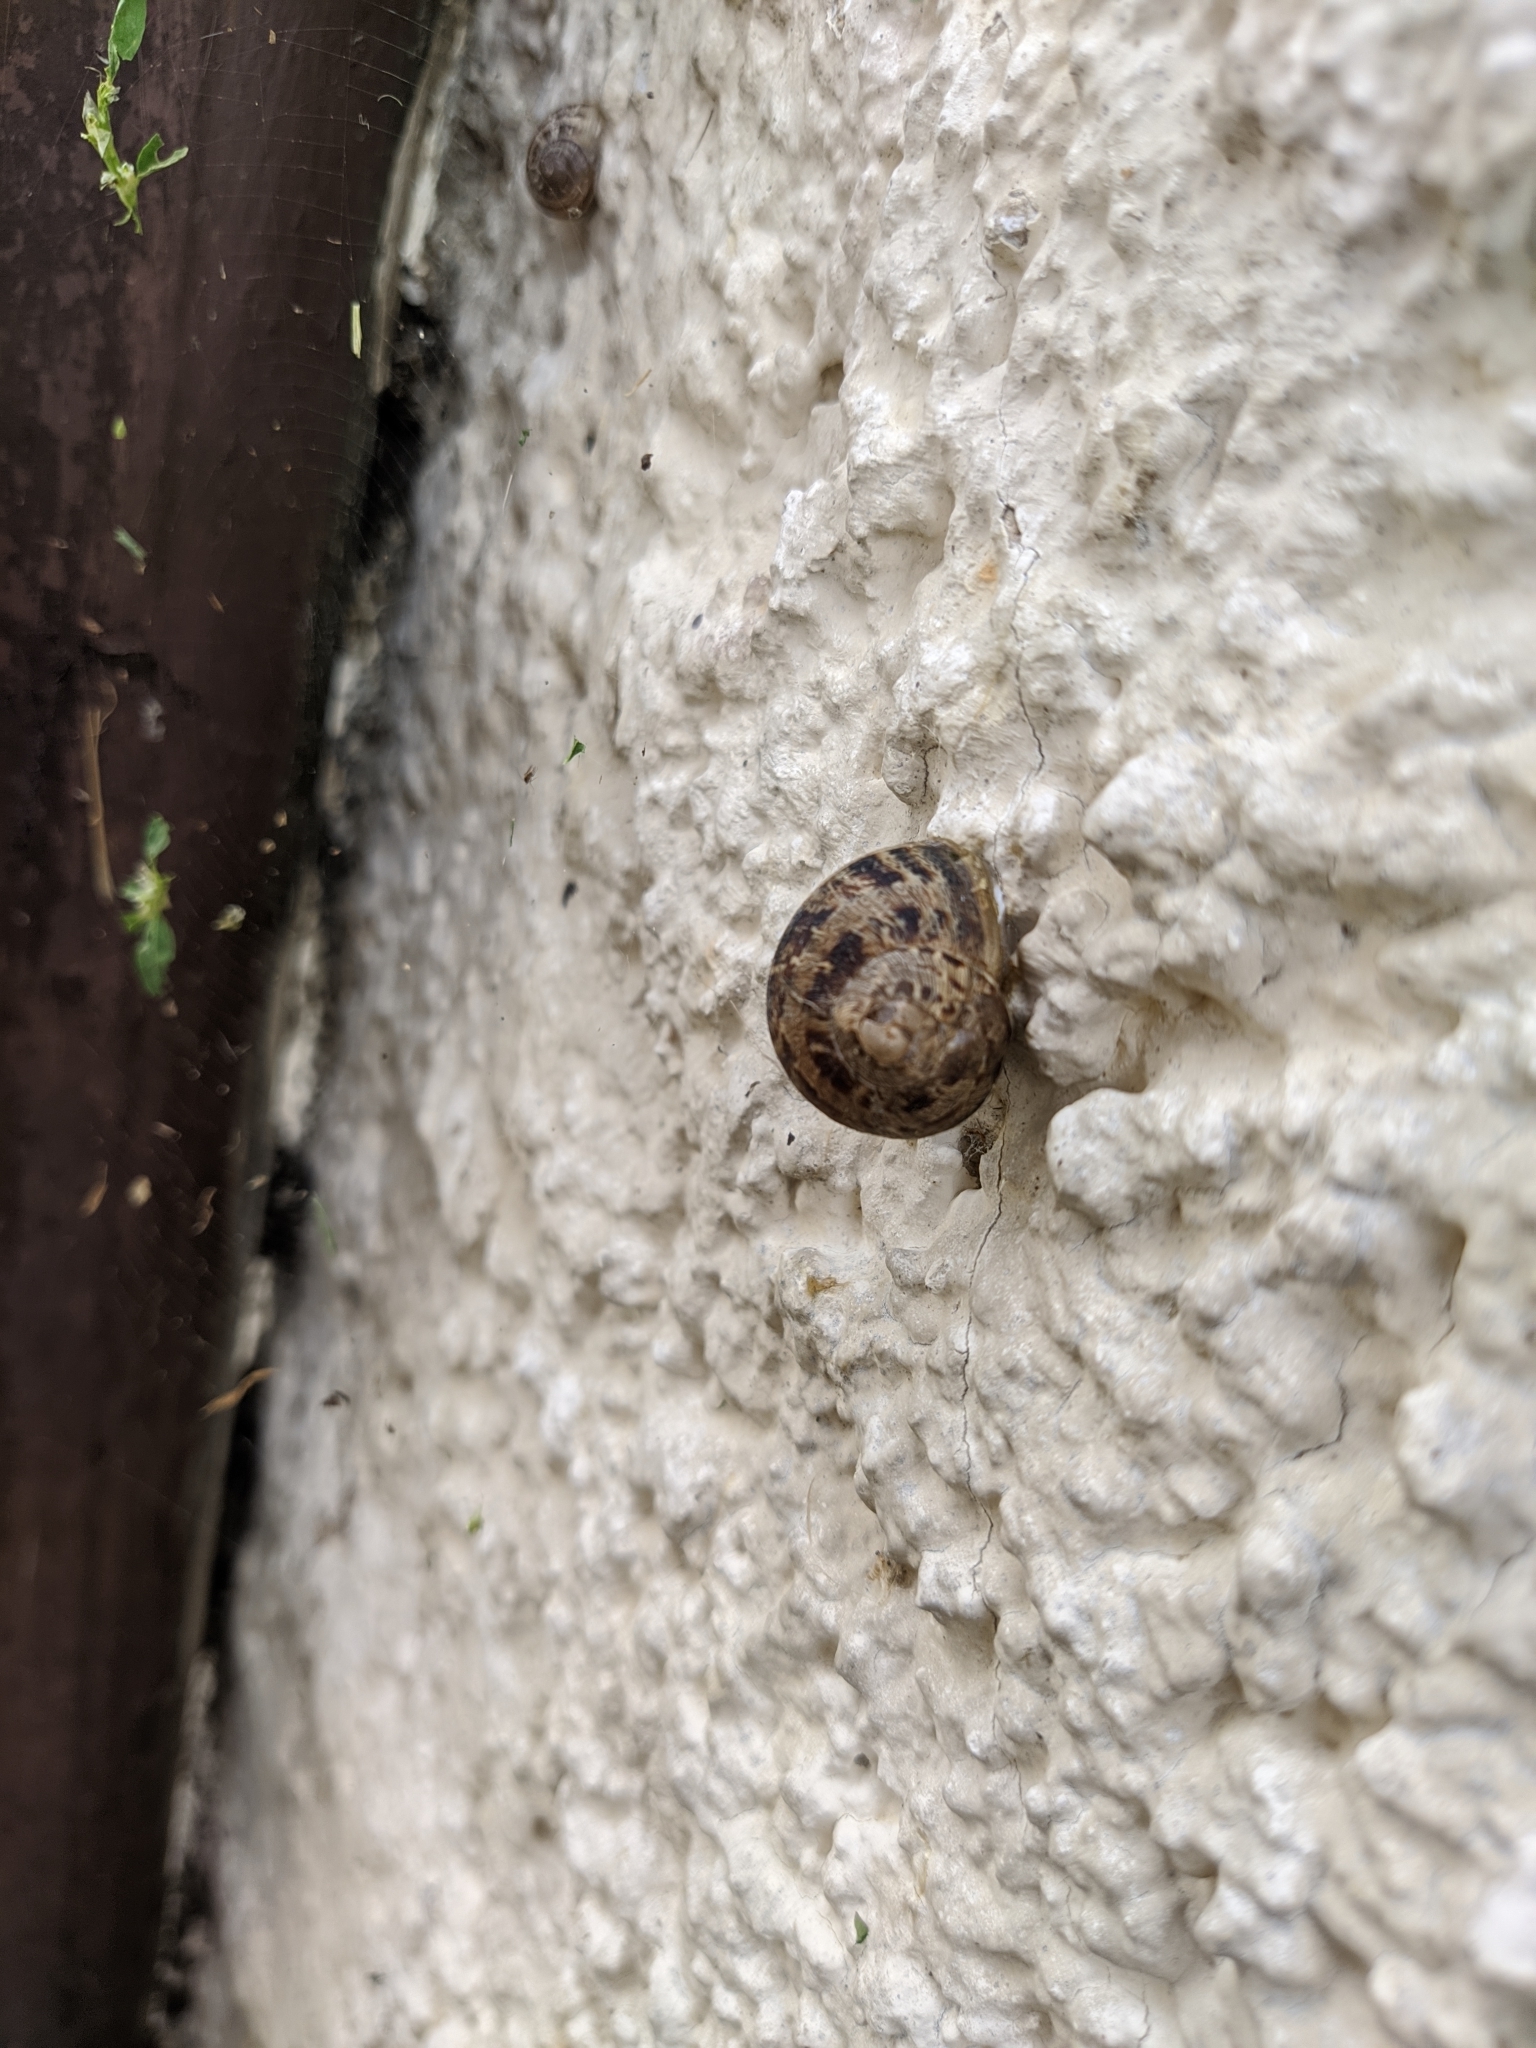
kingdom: Animalia
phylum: Mollusca
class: Gastropoda
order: Stylommatophora
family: Helicidae
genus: Cornu
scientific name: Cornu aspersum
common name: Brown garden snail
